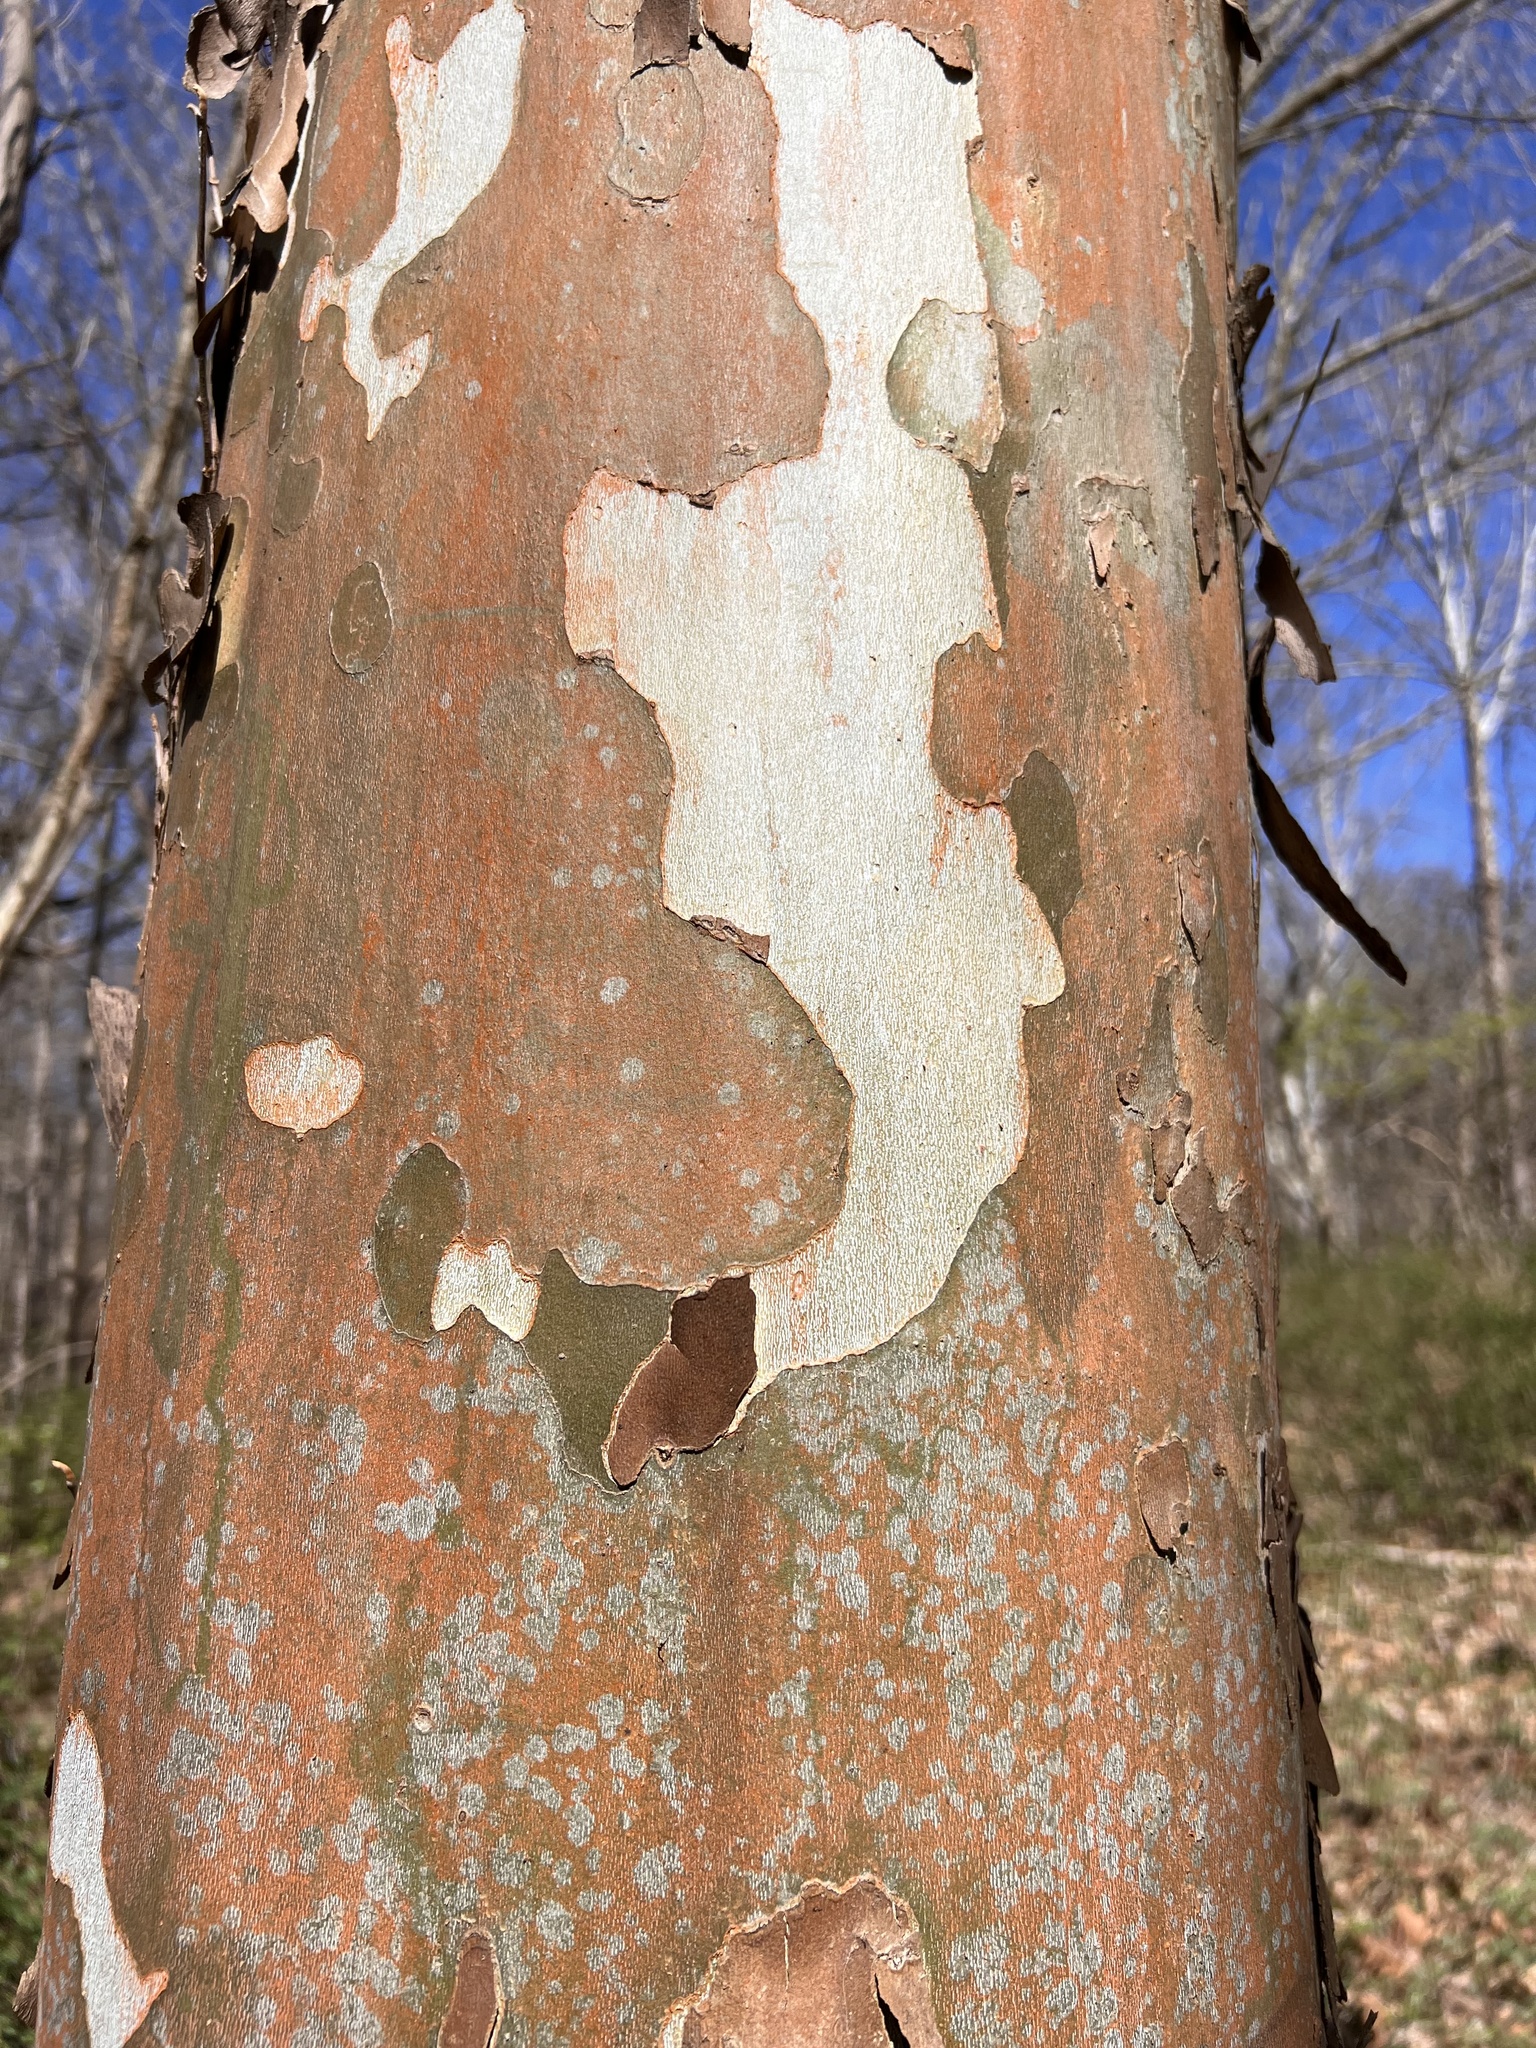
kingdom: Plantae
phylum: Tracheophyta
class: Magnoliopsida
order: Proteales
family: Platanaceae
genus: Platanus
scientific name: Platanus occidentalis
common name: American sycamore
